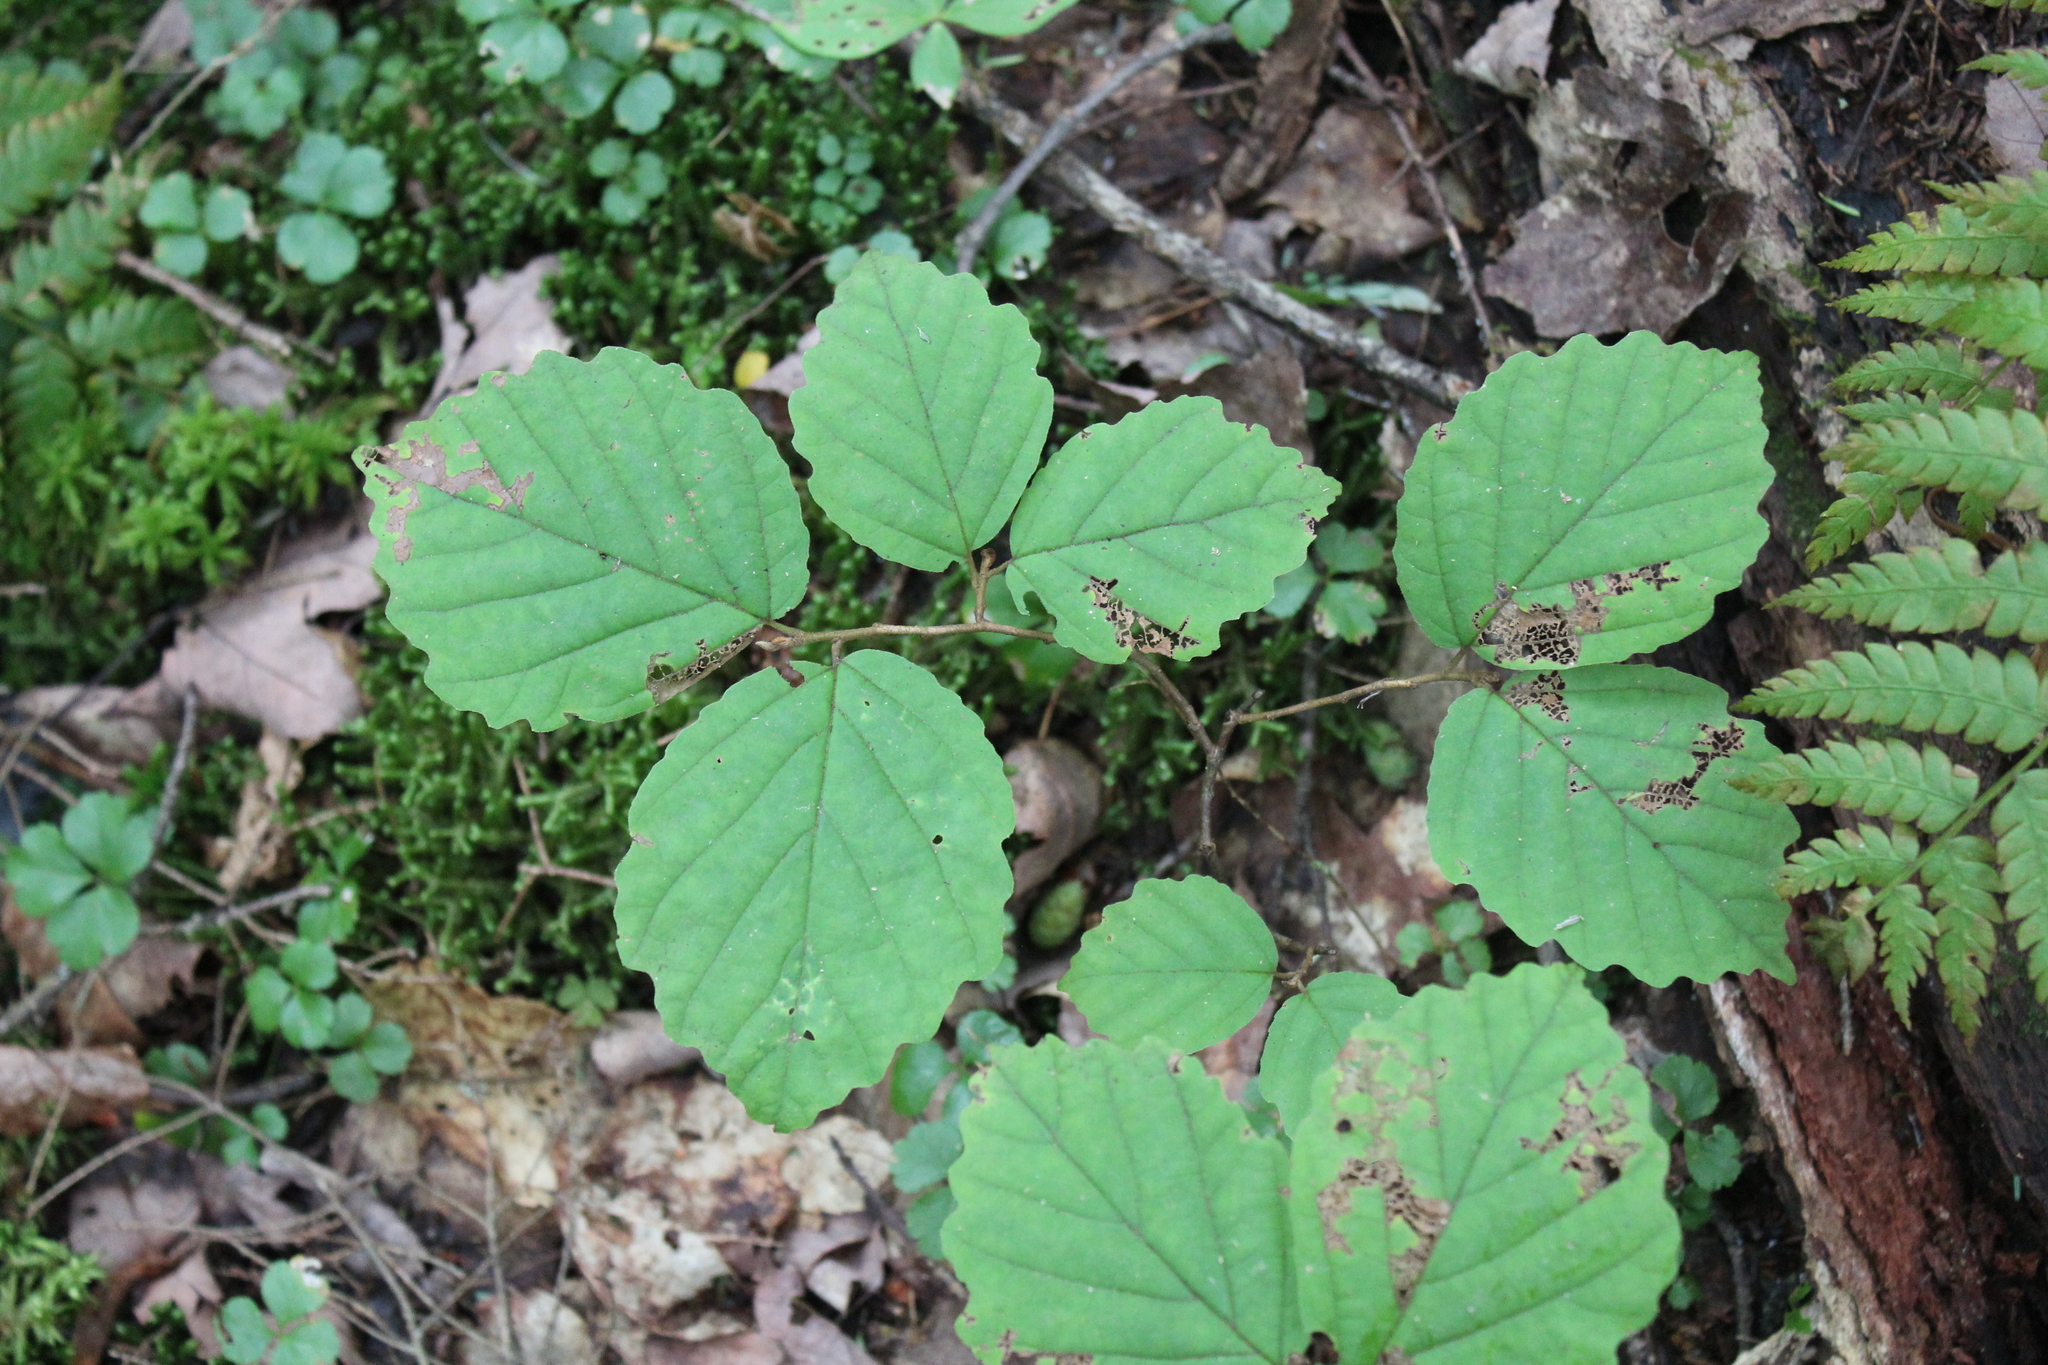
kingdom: Plantae
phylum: Tracheophyta
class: Magnoliopsida
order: Saxifragales
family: Hamamelidaceae
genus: Hamamelis
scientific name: Hamamelis virginiana
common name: Witch-hazel
